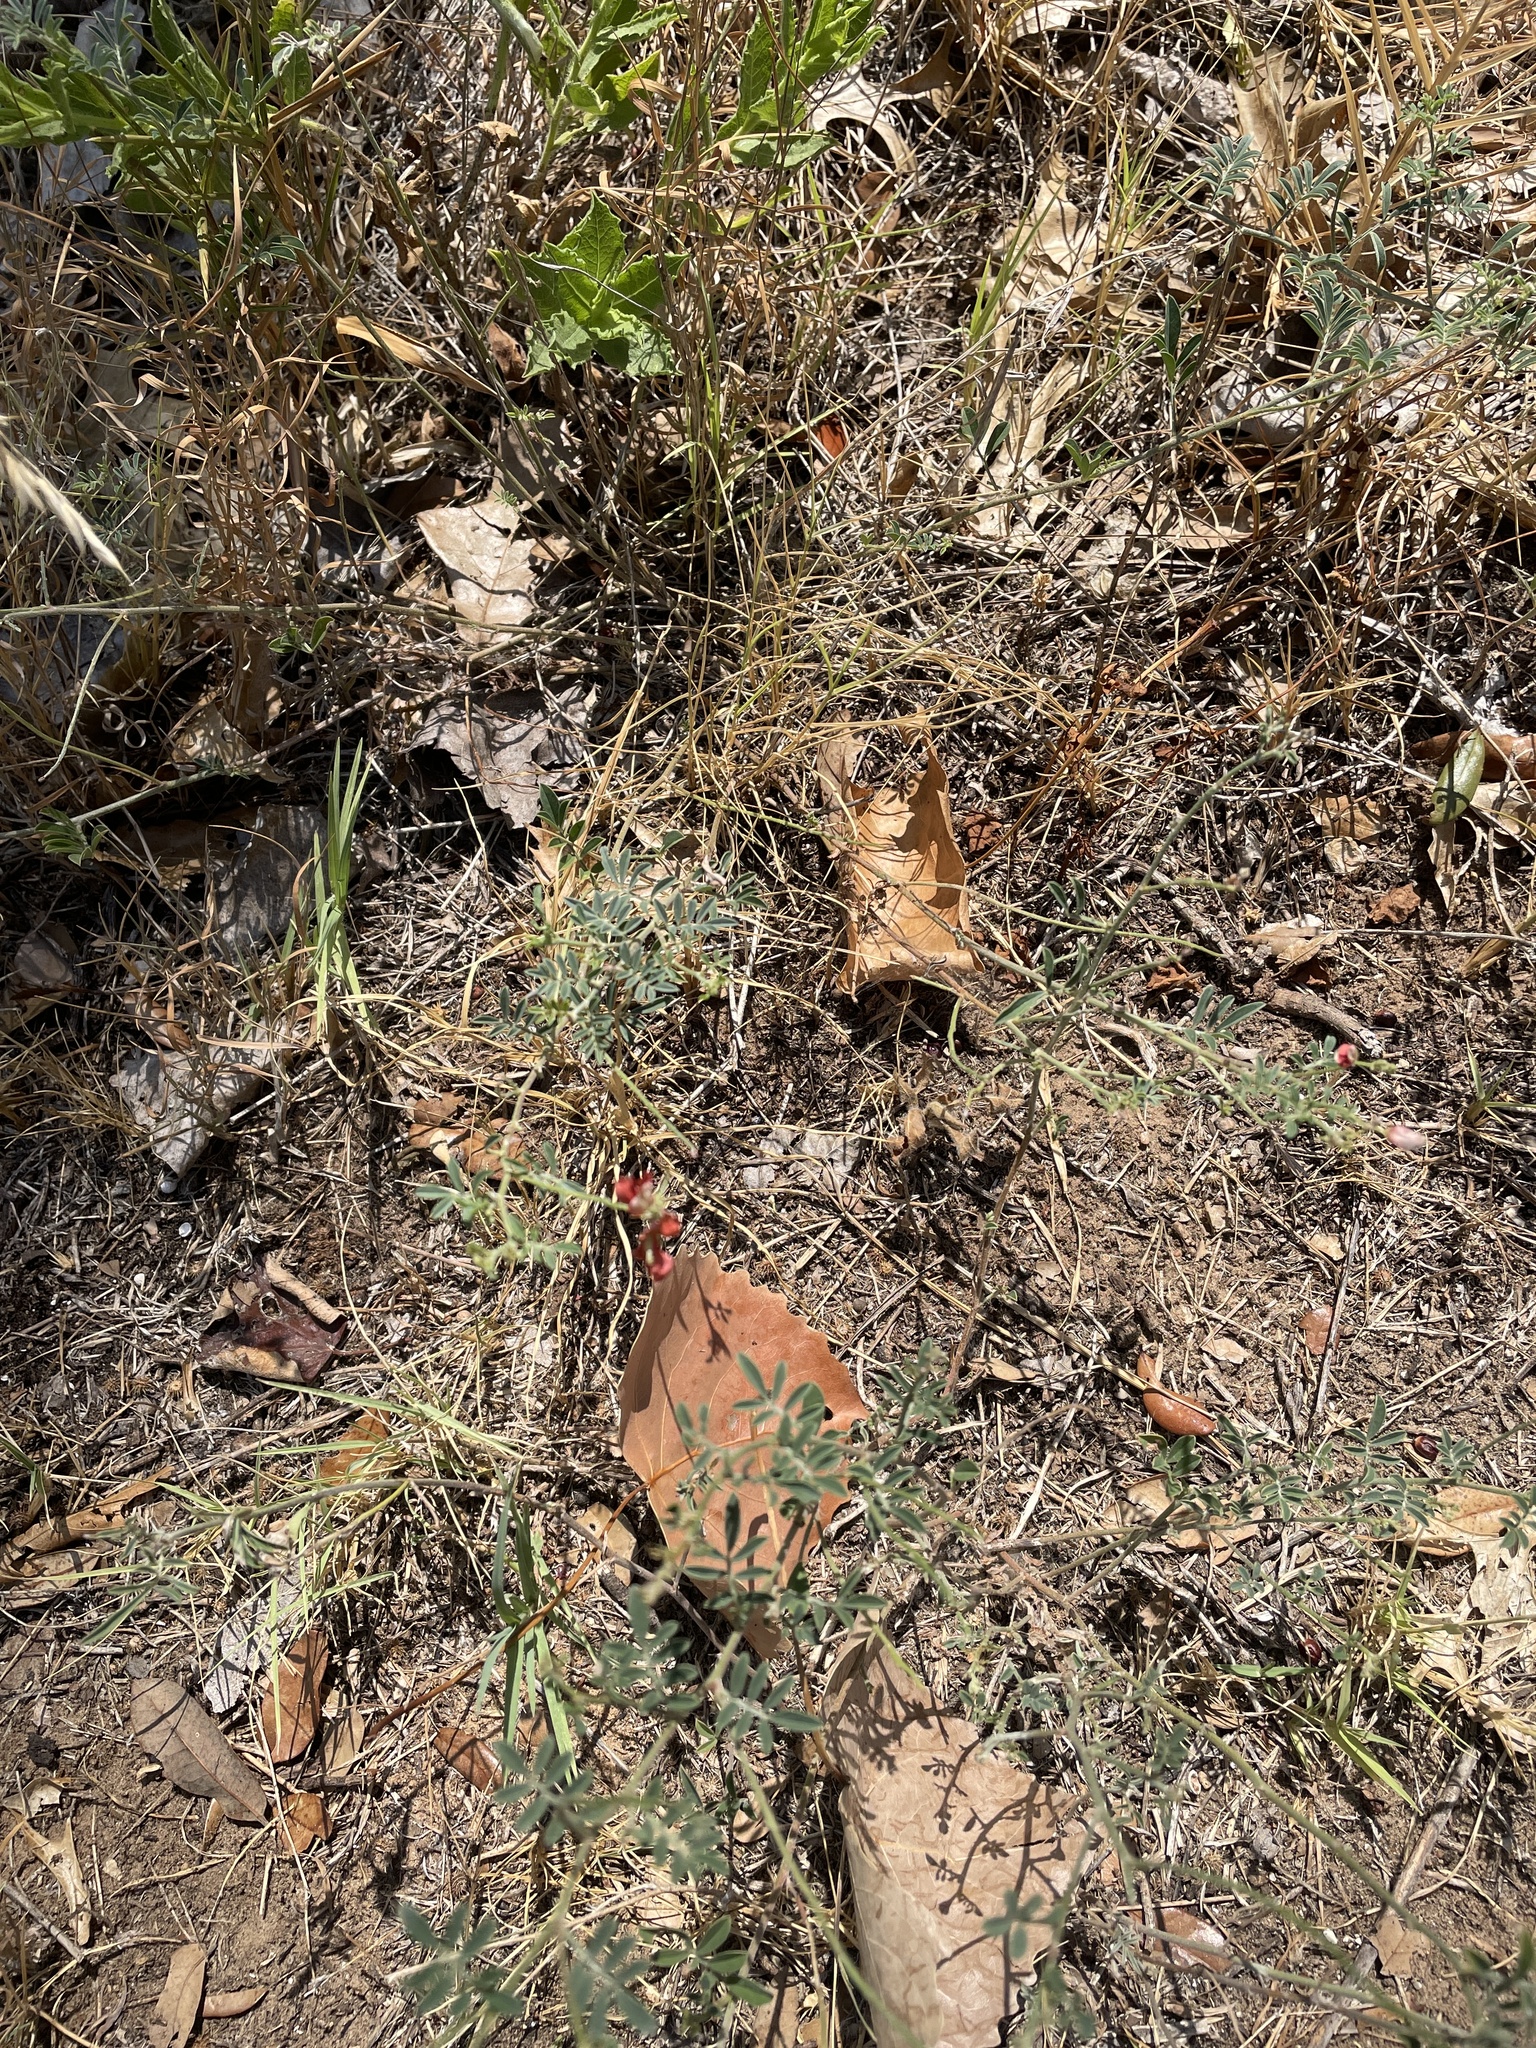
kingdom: Plantae
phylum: Tracheophyta
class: Magnoliopsida
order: Fabales
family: Fabaceae
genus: Indigofera
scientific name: Indigofera miniata
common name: Coast indigo
